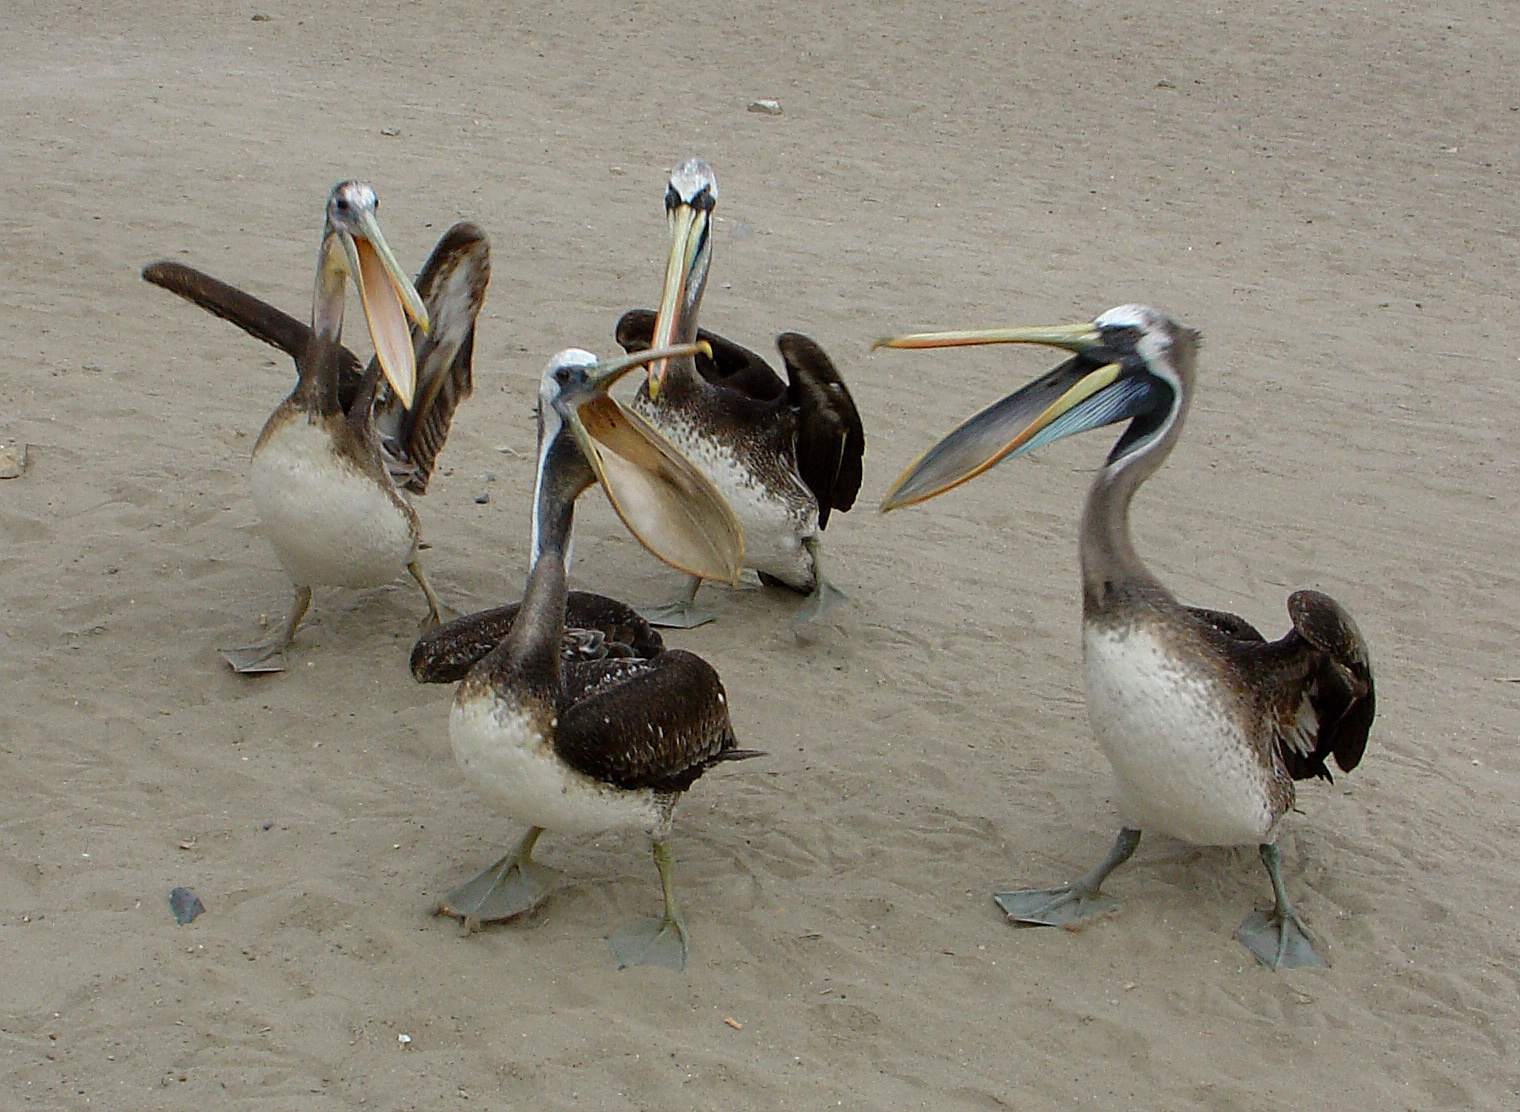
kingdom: Animalia
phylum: Chordata
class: Aves
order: Pelecaniformes
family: Pelecanidae
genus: Pelecanus
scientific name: Pelecanus thagus
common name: Peruvian pelican
